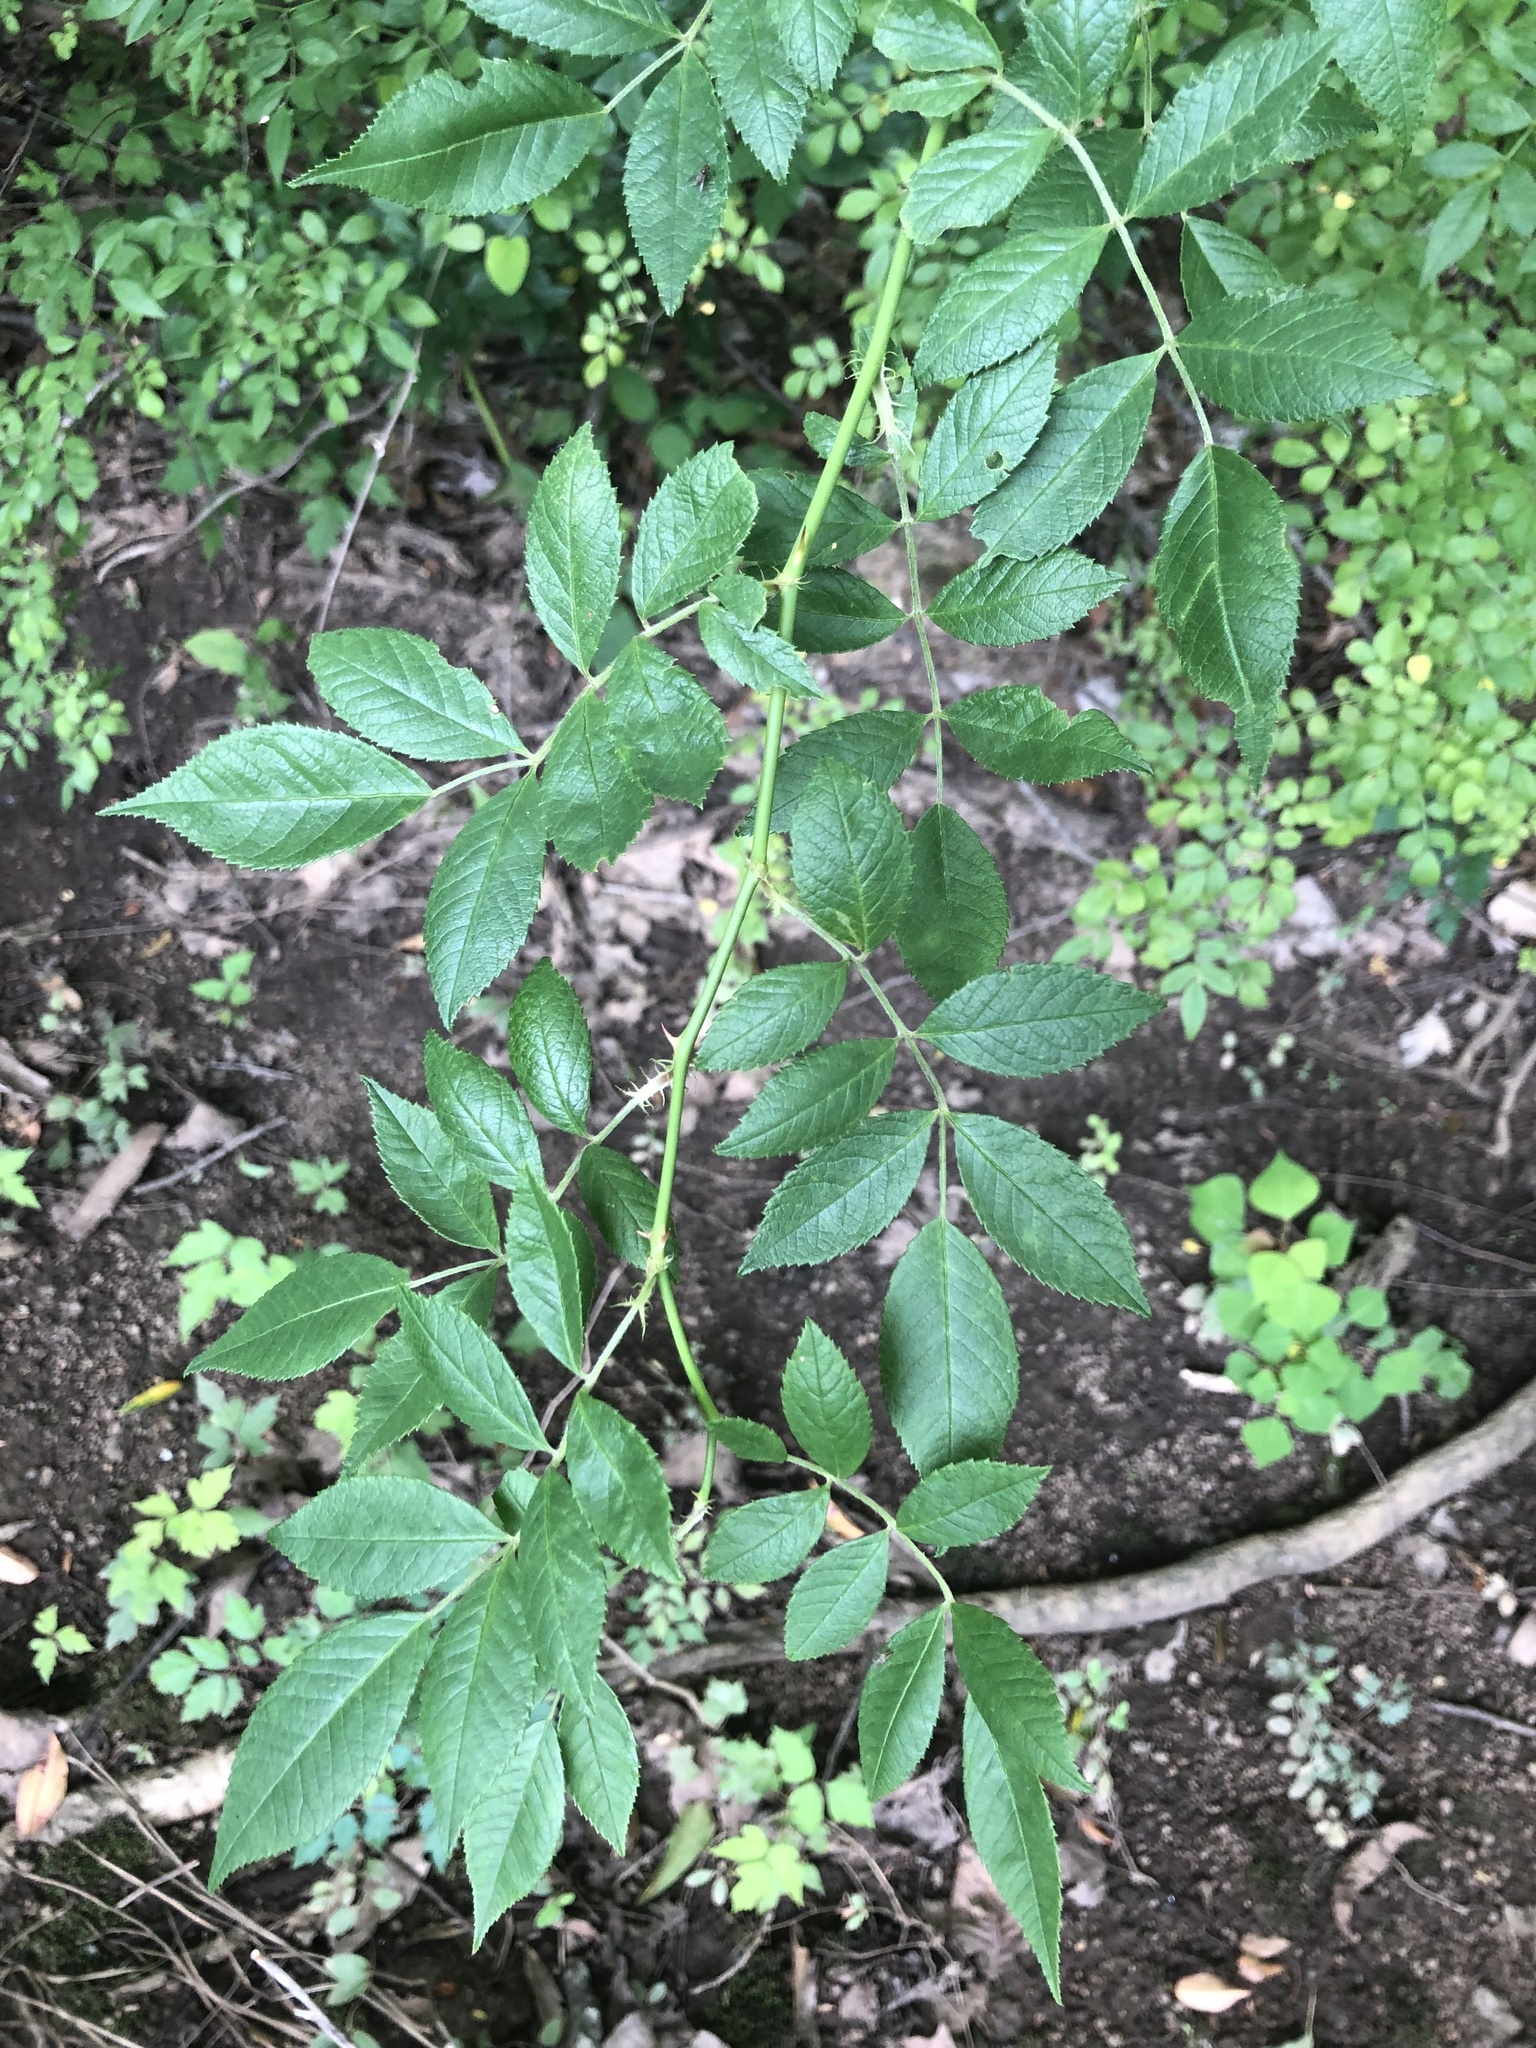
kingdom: Plantae
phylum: Tracheophyta
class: Magnoliopsida
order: Rosales
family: Rosaceae
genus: Rosa
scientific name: Rosa multiflora
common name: Multiflora rose
